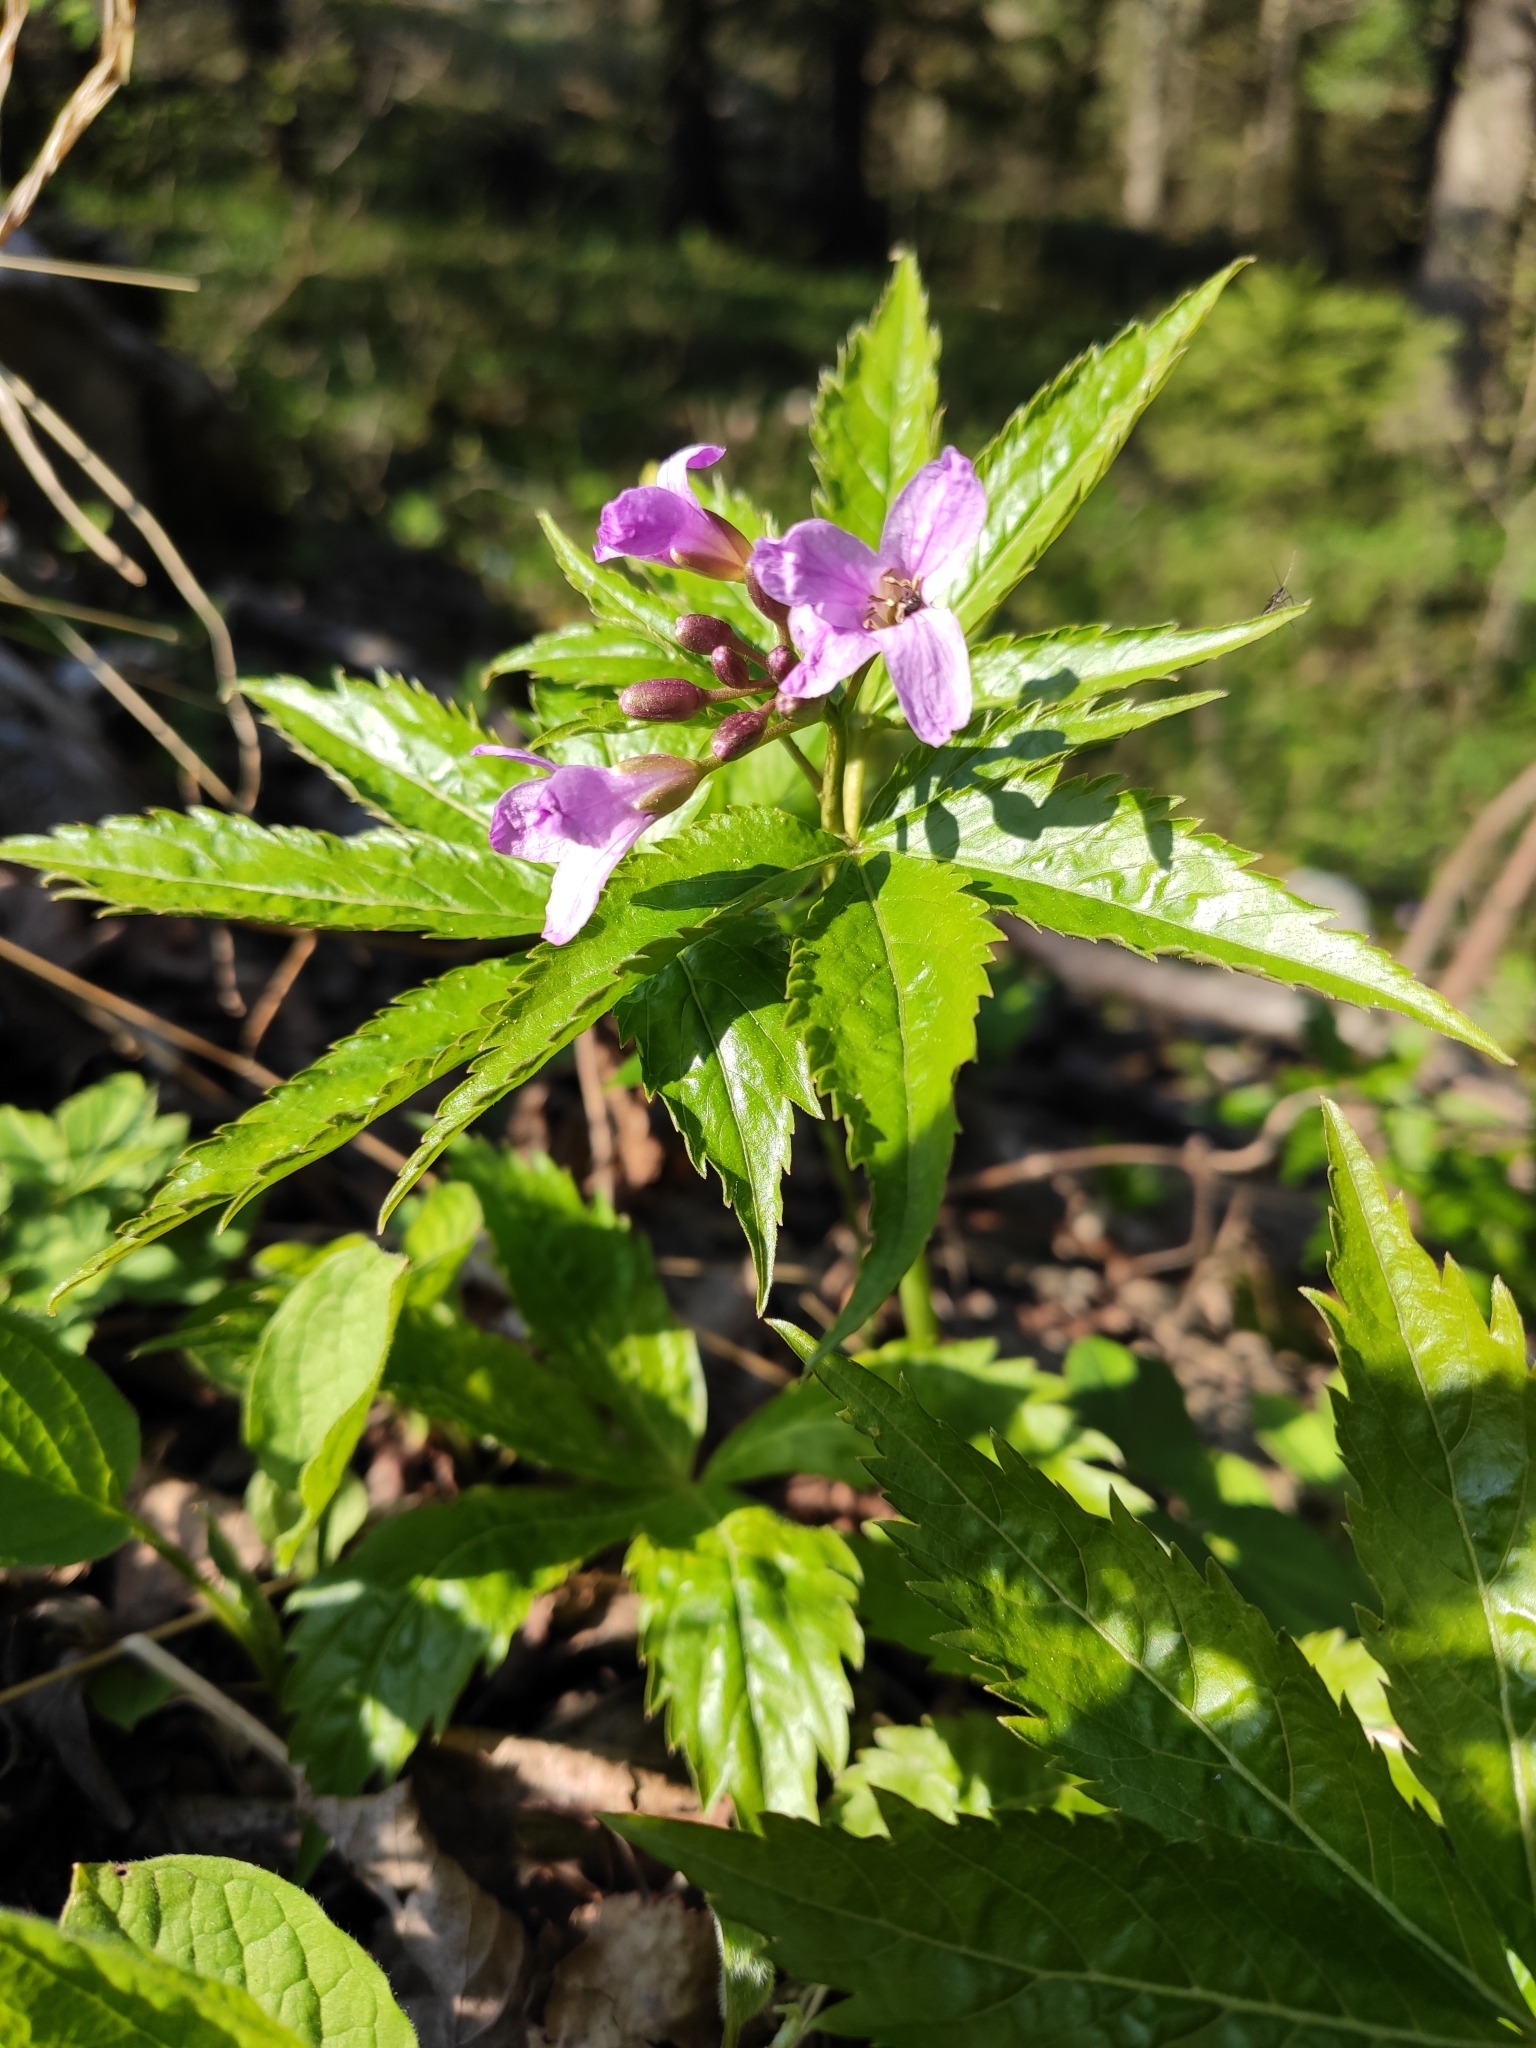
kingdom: Plantae
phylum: Tracheophyta
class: Magnoliopsida
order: Brassicales
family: Brassicaceae
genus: Cardamine
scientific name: Cardamine pentaphyllos
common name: Five-leaflet bitter-cress
